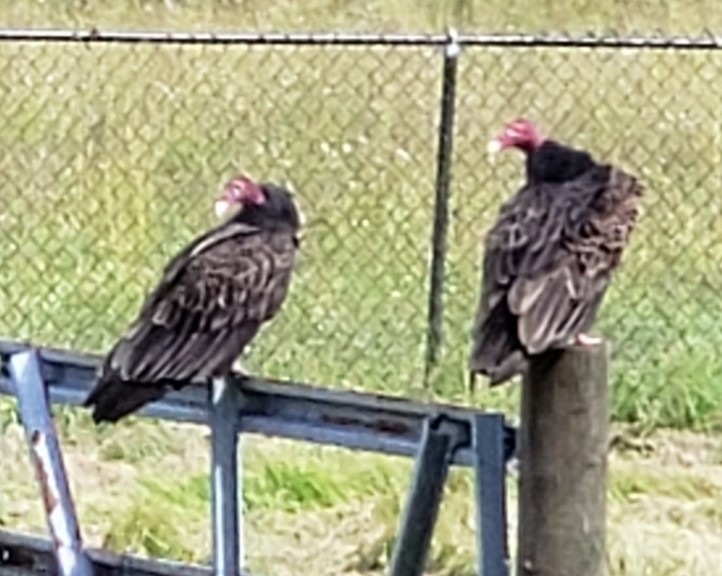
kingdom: Animalia
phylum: Chordata
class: Aves
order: Accipitriformes
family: Cathartidae
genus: Cathartes
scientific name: Cathartes aura
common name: Turkey vulture
